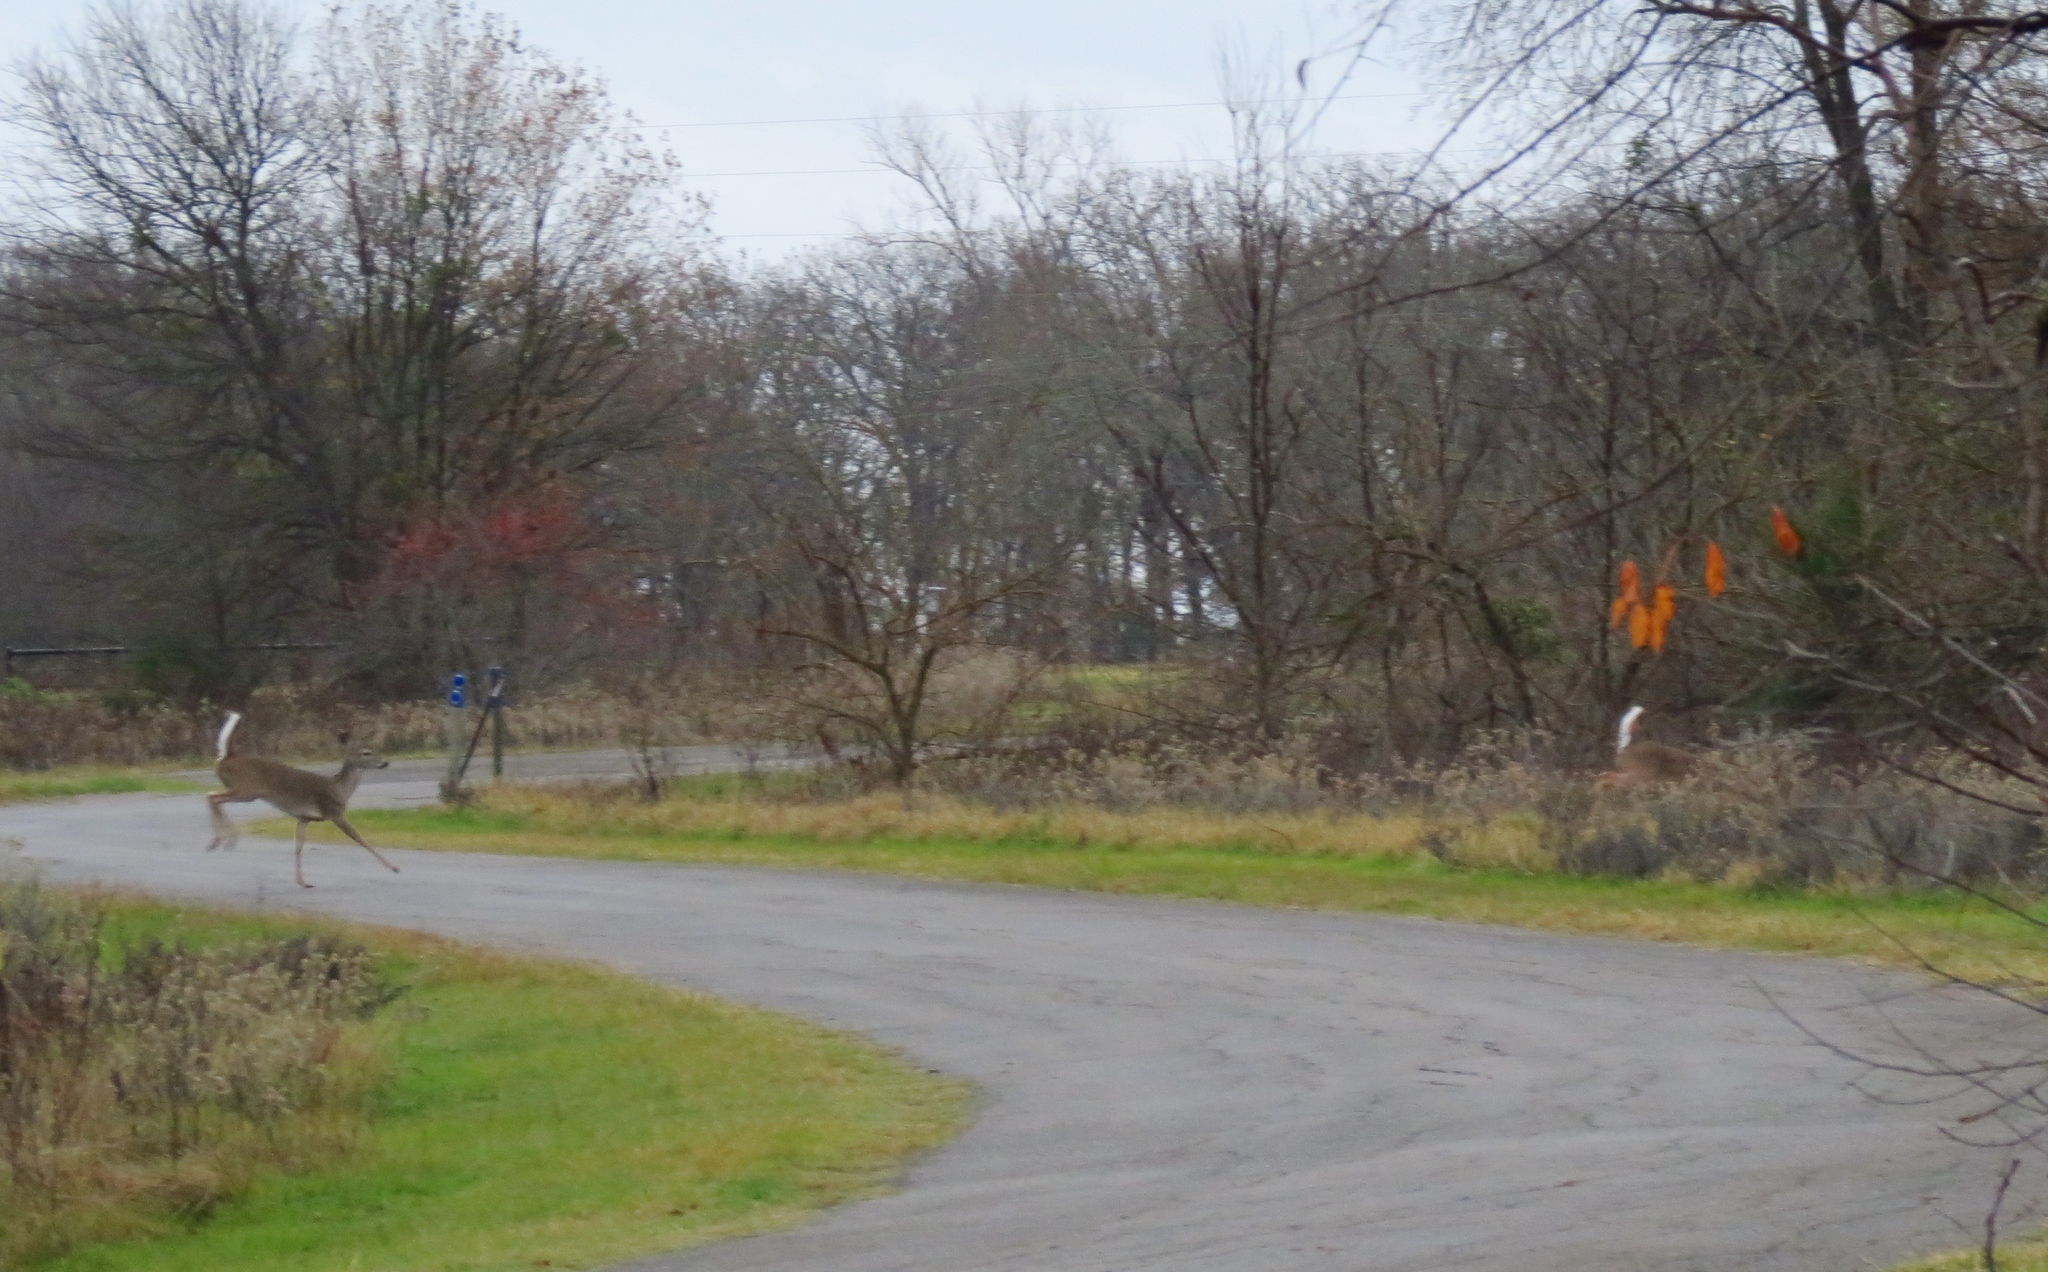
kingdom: Animalia
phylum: Chordata
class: Mammalia
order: Artiodactyla
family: Cervidae
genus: Odocoileus
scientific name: Odocoileus virginianus
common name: White-tailed deer
